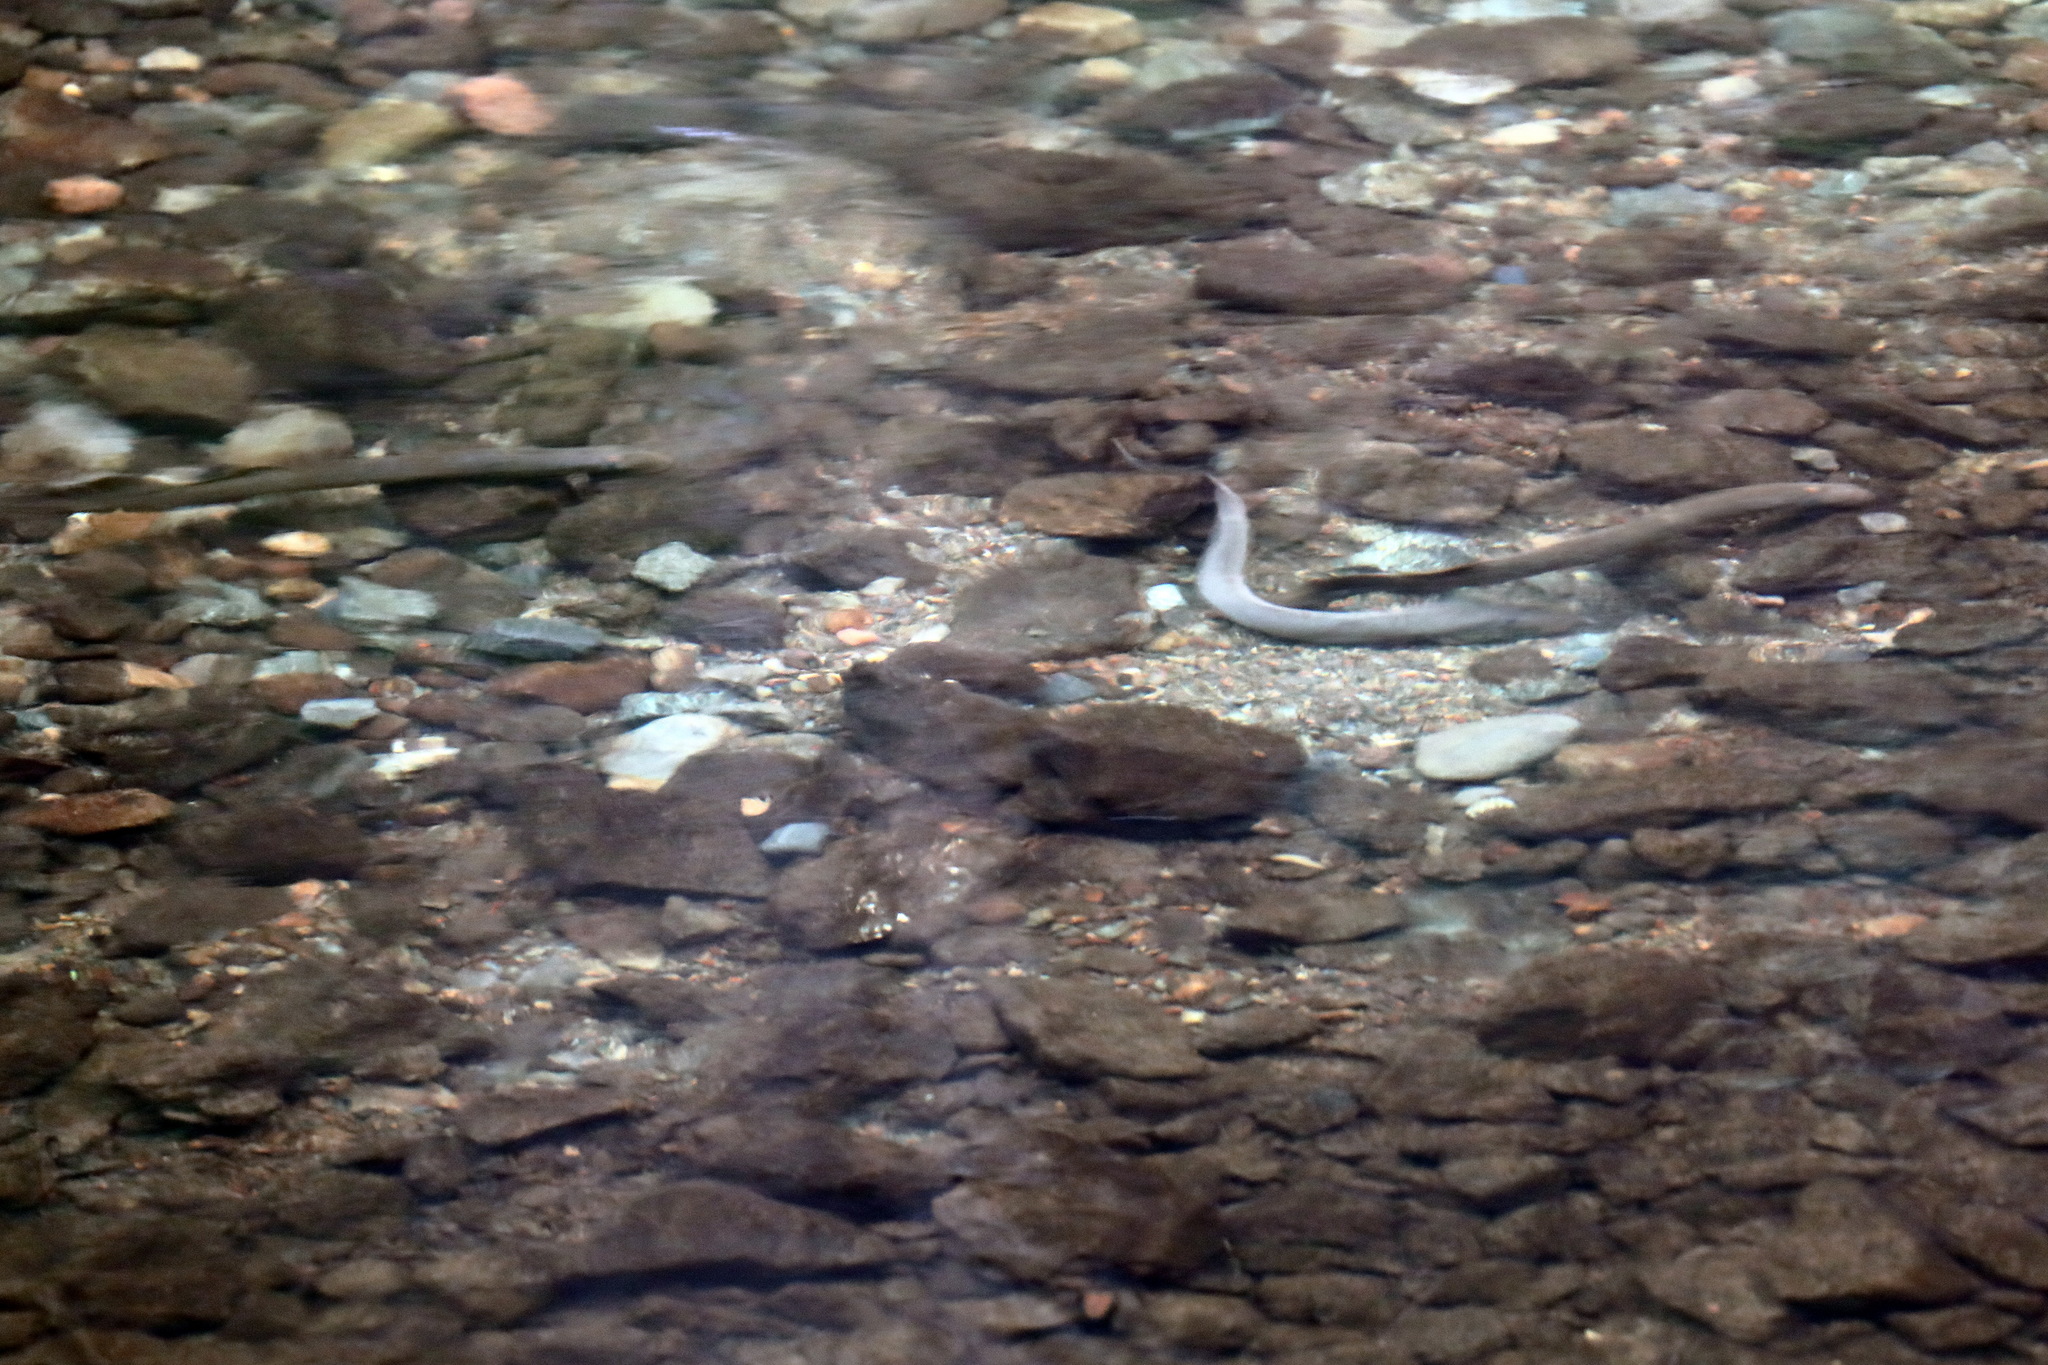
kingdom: Animalia
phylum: Chordata
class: Petromyzonti
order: Petromyzontiformes
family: Petromyzontidae
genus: Entosphenus
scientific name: Entosphenus tridentatus
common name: Pacific lamprey
